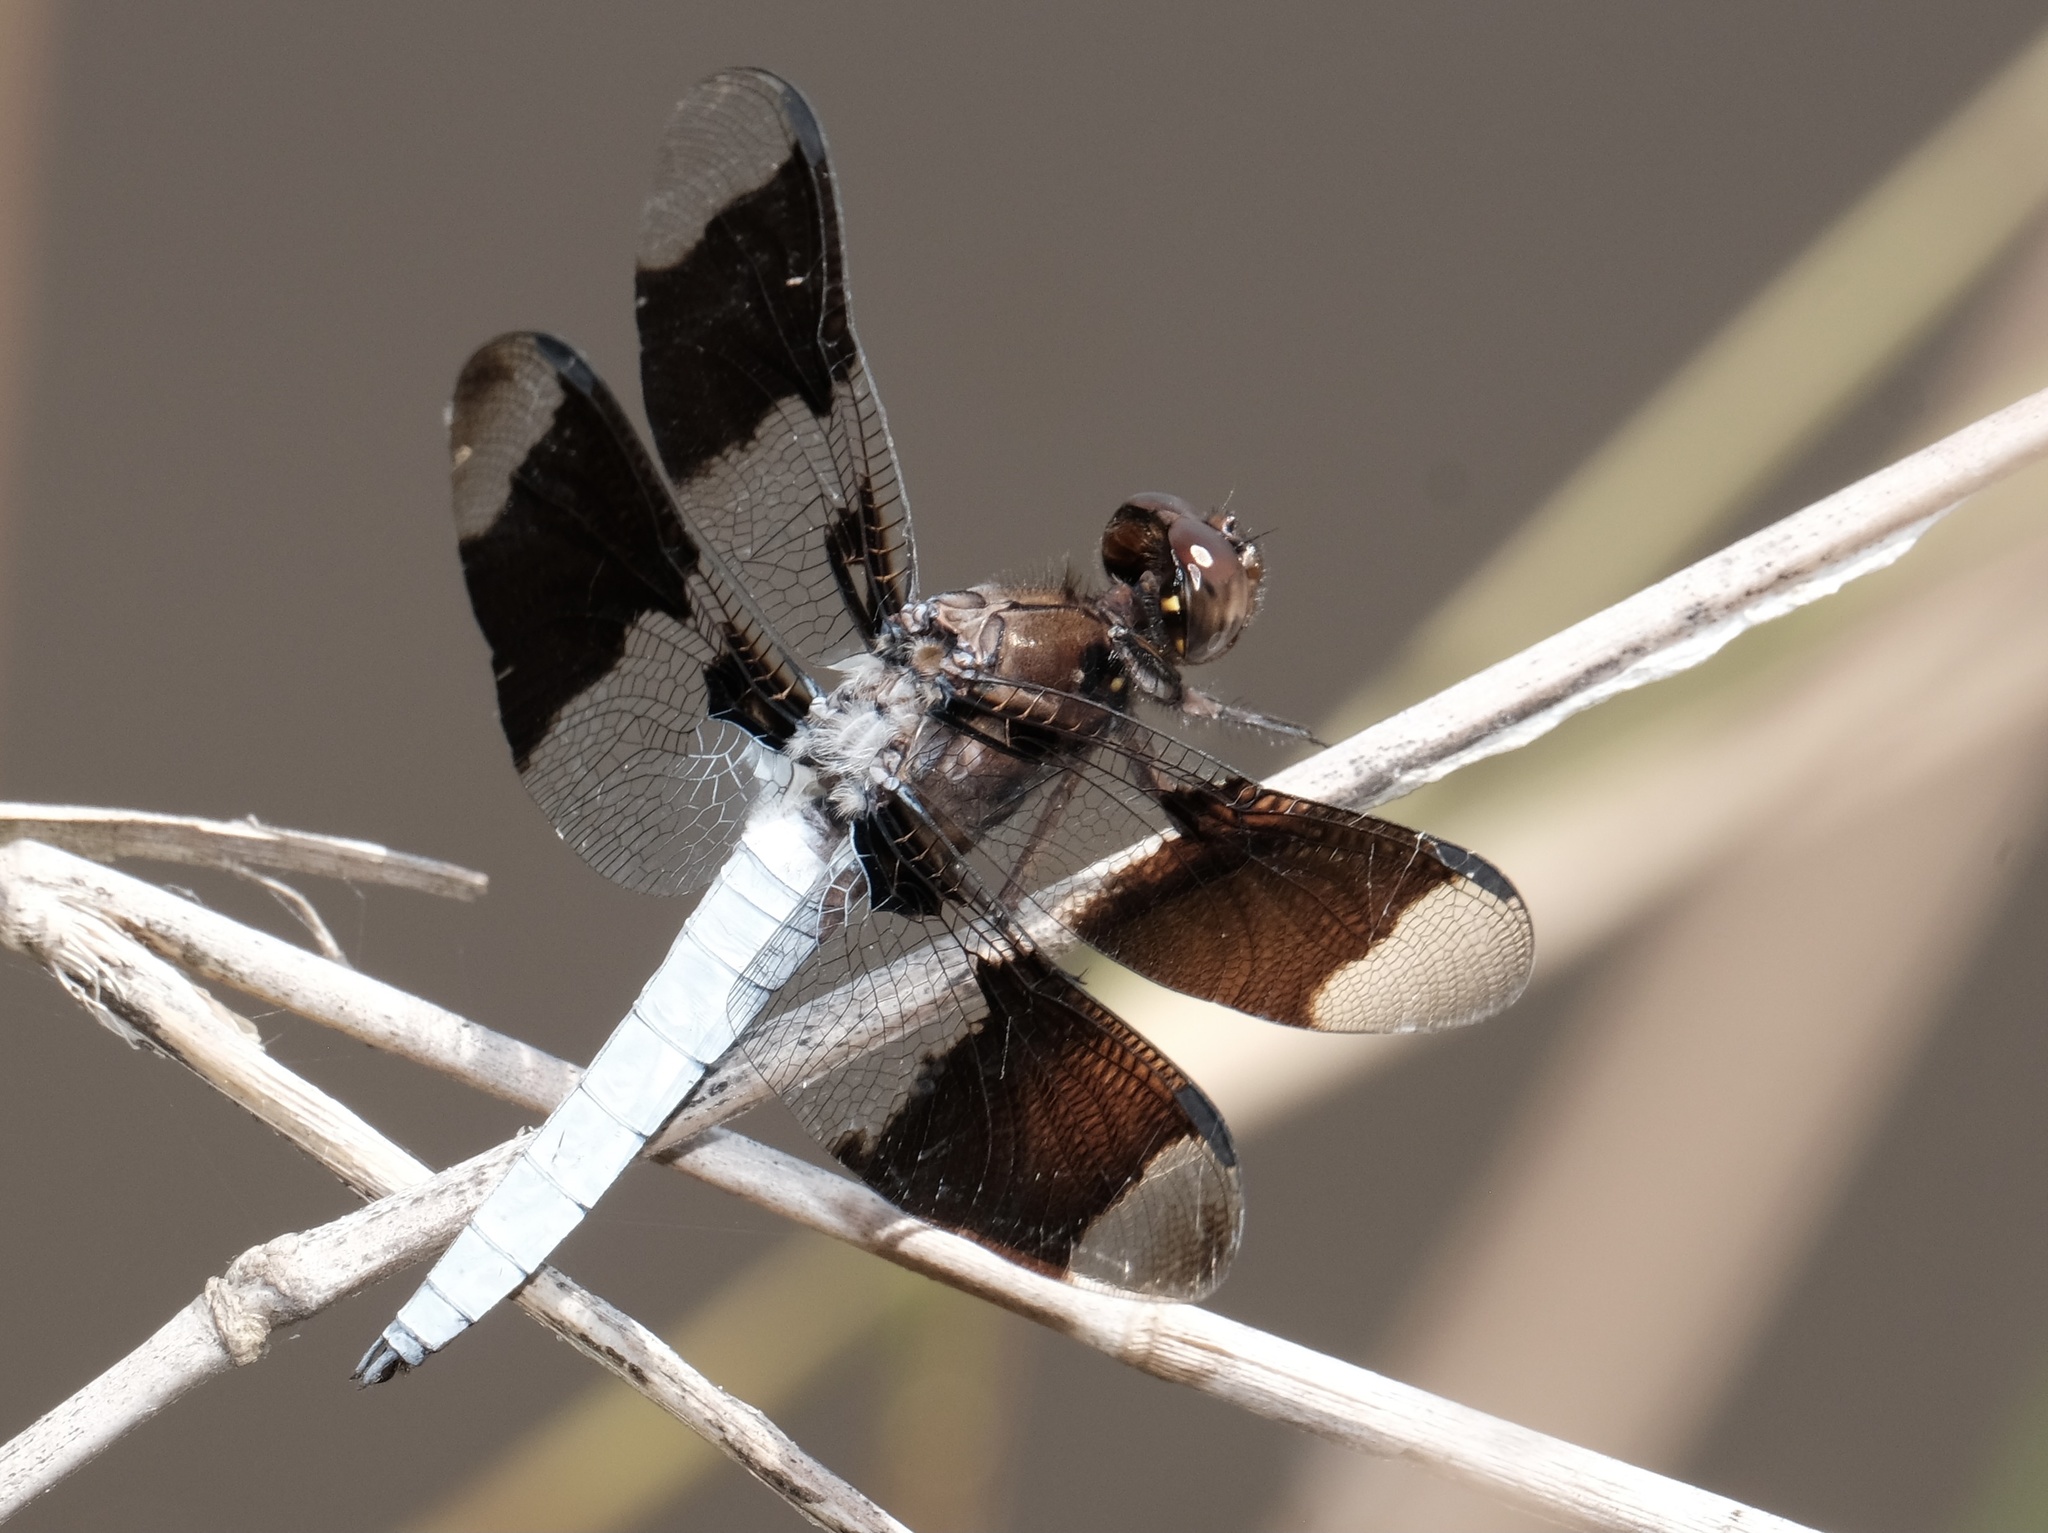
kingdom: Animalia
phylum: Arthropoda
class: Insecta
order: Odonata
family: Libellulidae
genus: Plathemis
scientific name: Plathemis lydia
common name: Common whitetail
